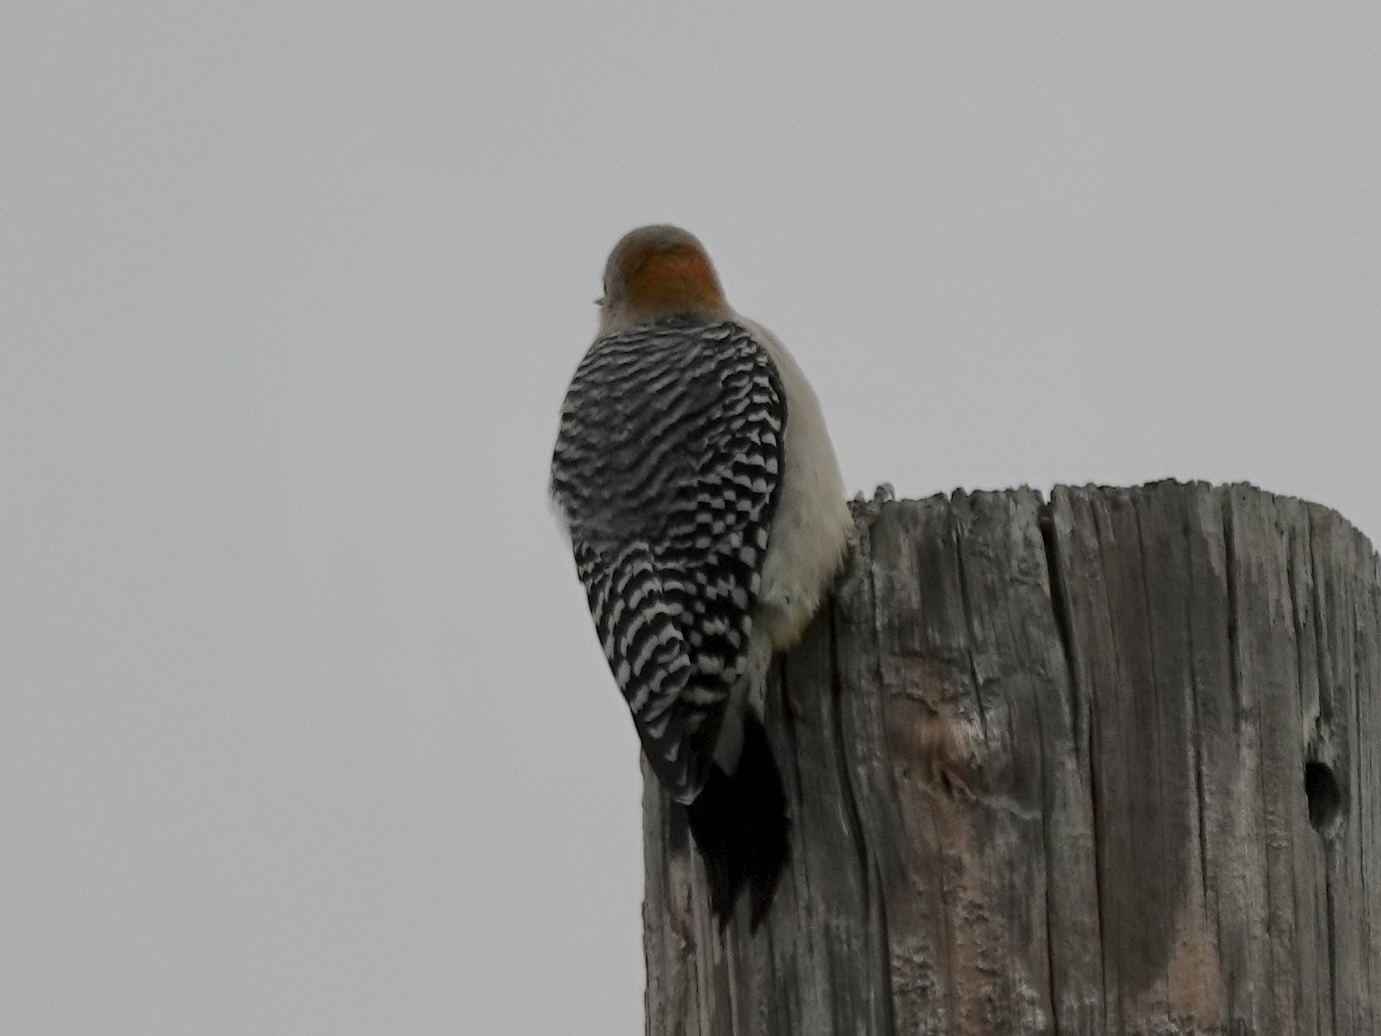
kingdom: Animalia
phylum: Chordata
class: Aves
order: Piciformes
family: Picidae
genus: Melanerpes
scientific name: Melanerpes aurifrons
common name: Golden-fronted woodpecker
